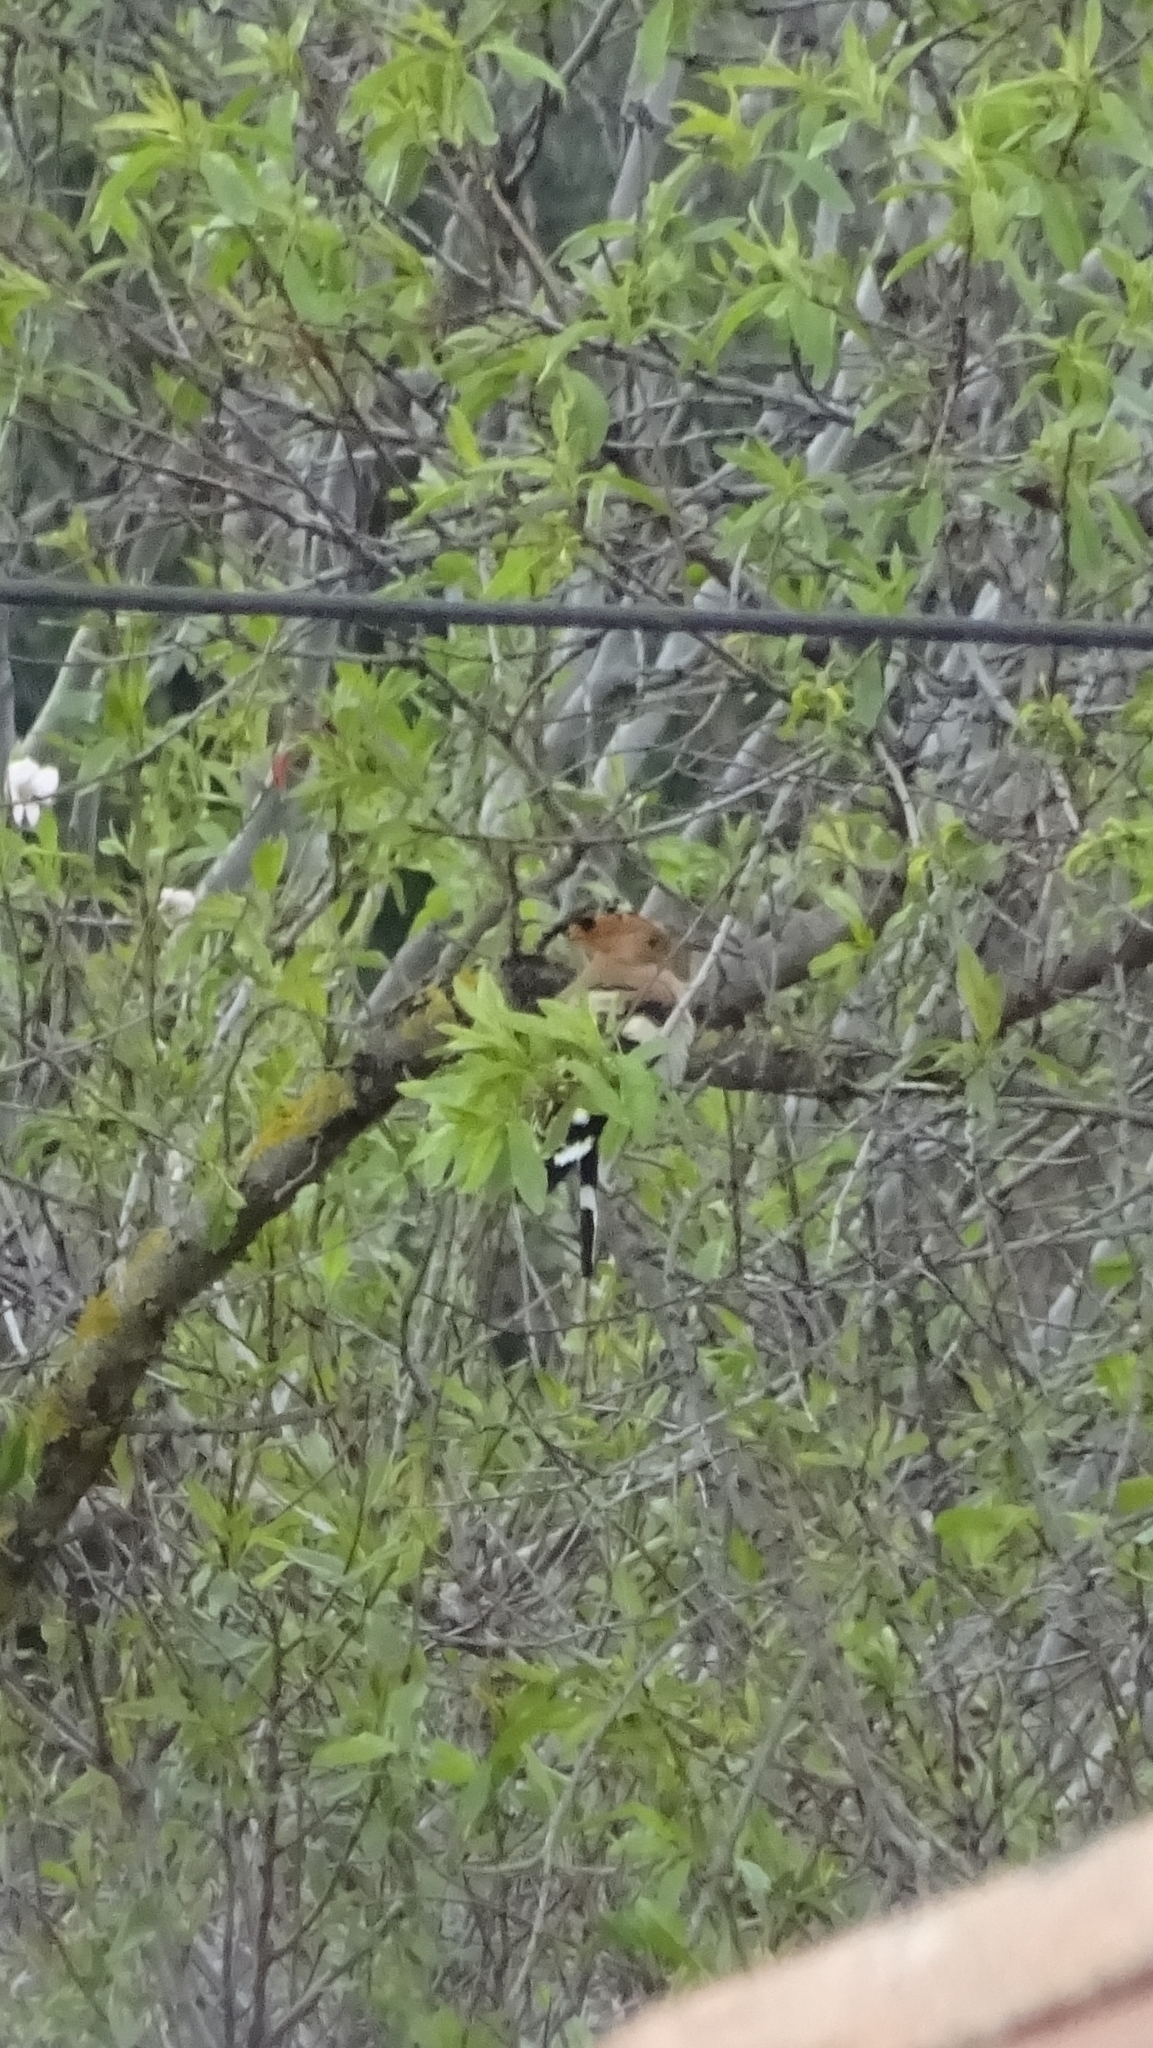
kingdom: Animalia
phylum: Chordata
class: Aves
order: Bucerotiformes
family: Upupidae
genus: Upupa
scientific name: Upupa epops
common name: Eurasian hoopoe
